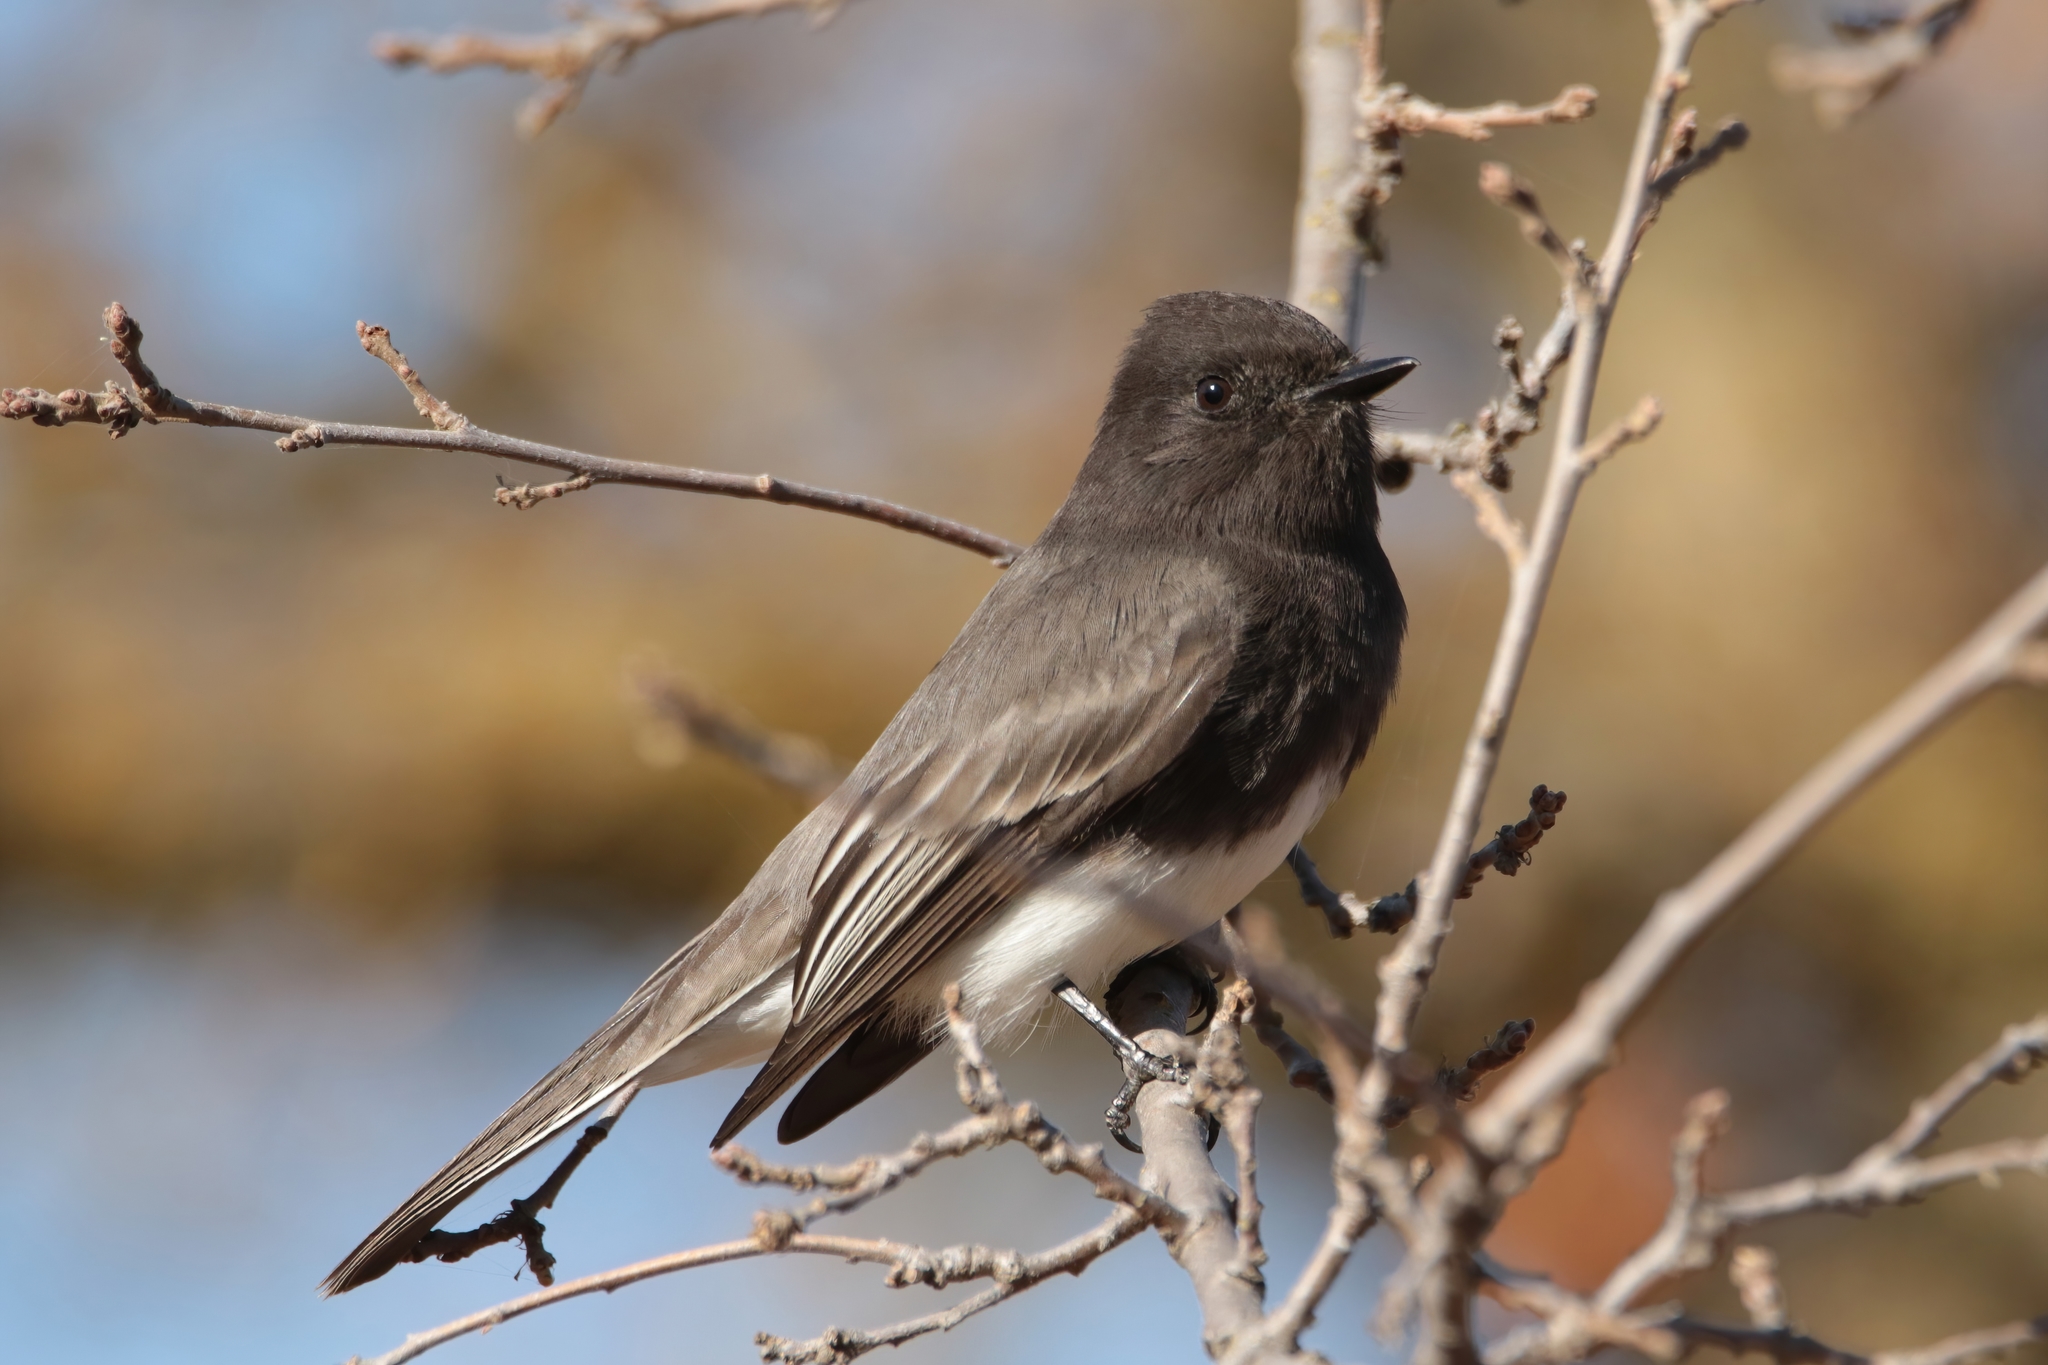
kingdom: Animalia
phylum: Chordata
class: Aves
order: Passeriformes
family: Tyrannidae
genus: Sayornis
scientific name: Sayornis nigricans
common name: Black phoebe
